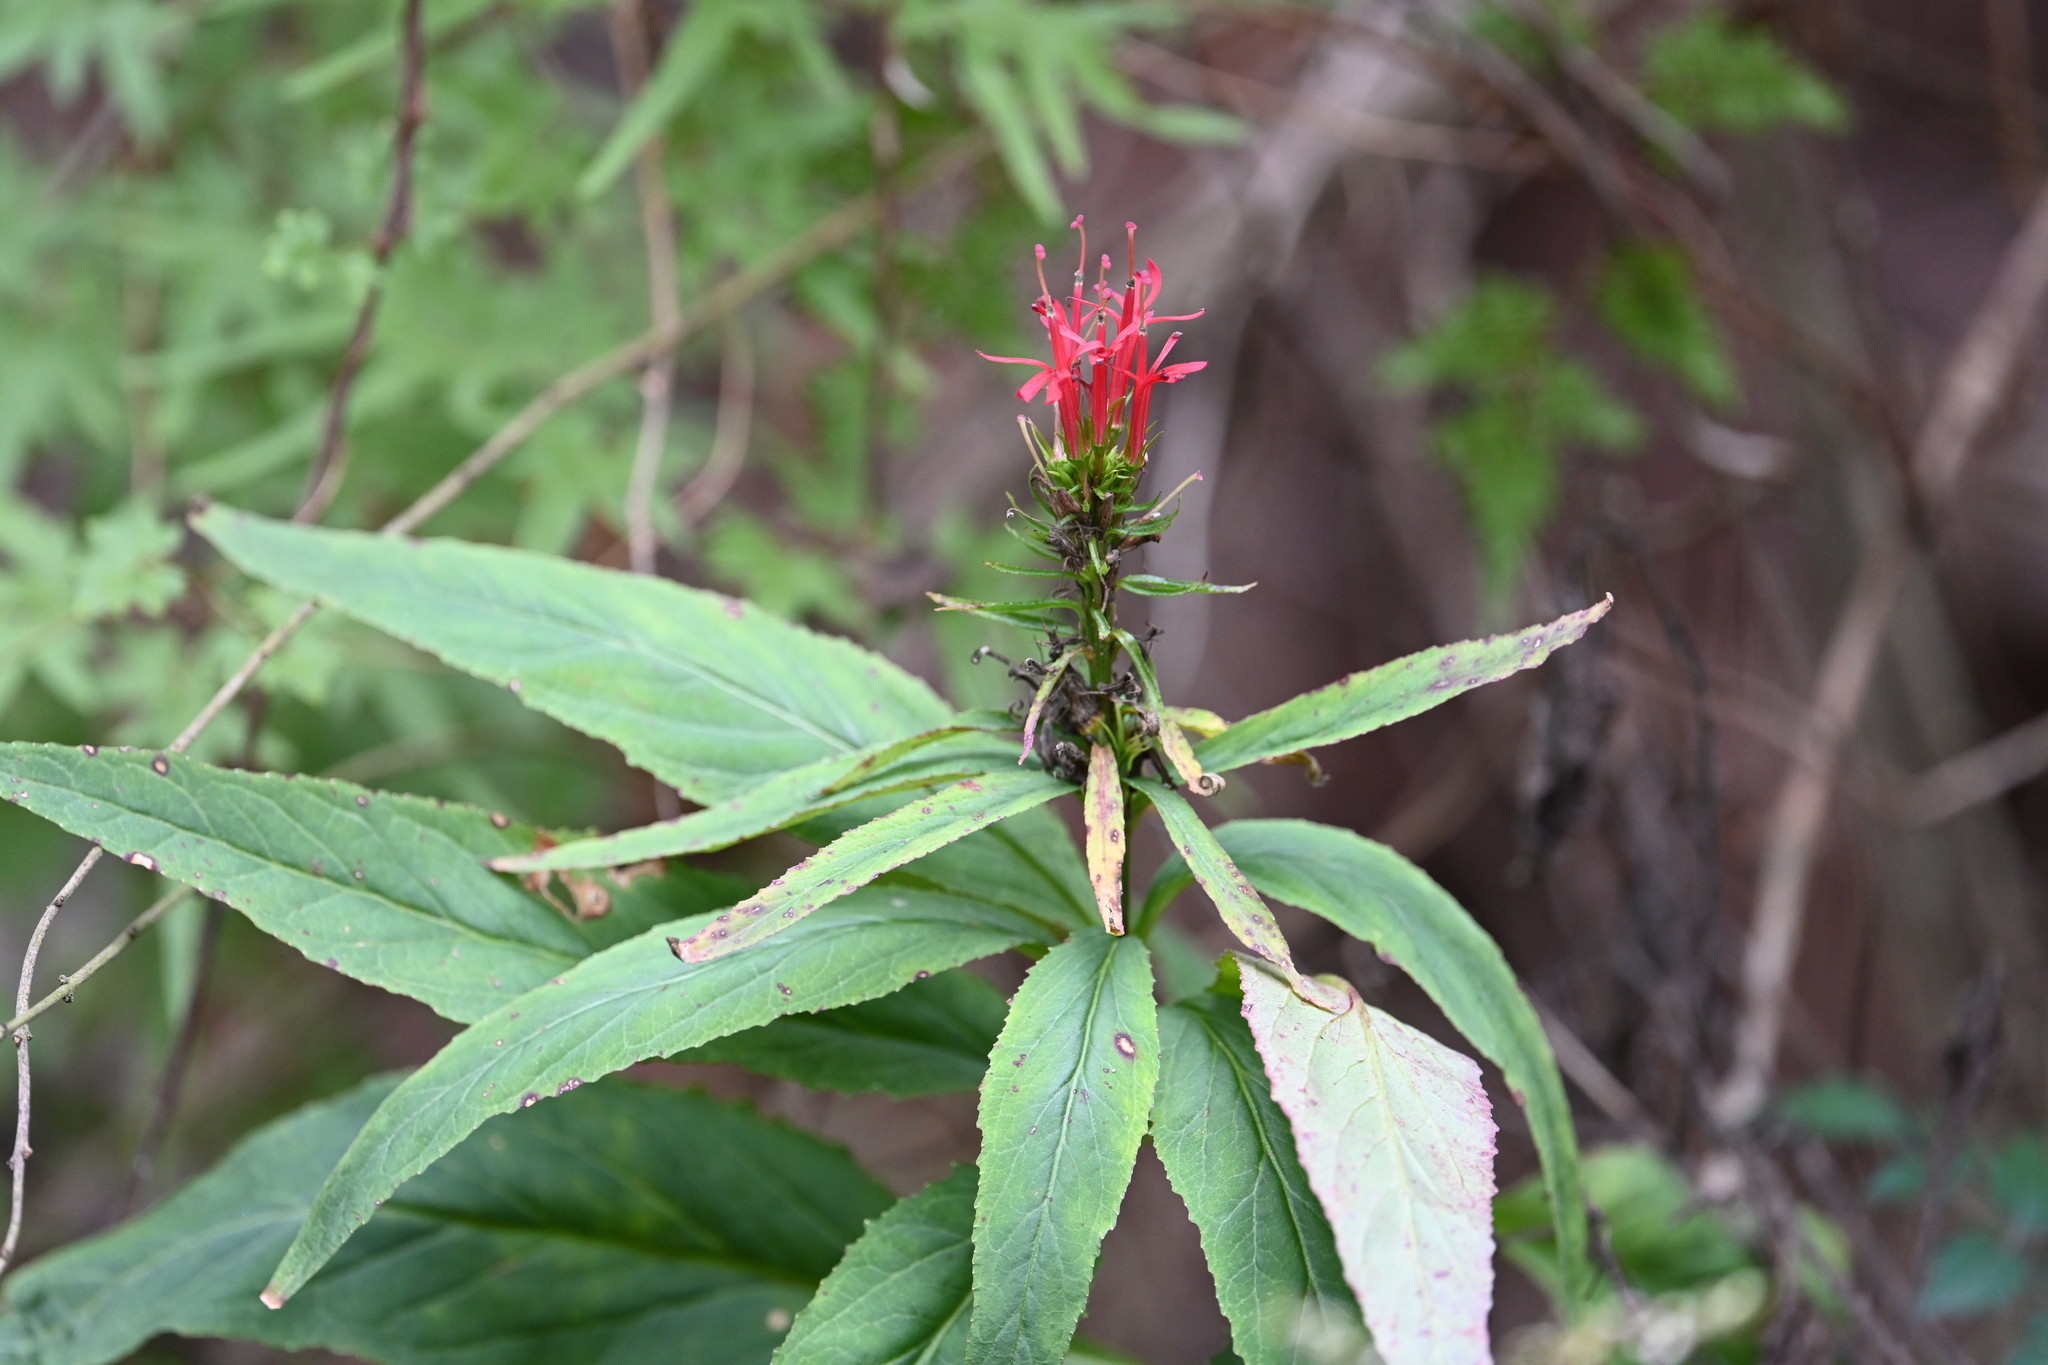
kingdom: Plantae
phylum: Tracheophyta
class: Magnoliopsida
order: Asterales
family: Campanulaceae
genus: Lobelia
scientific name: Lobelia cardinalis
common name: Cardinal flower
